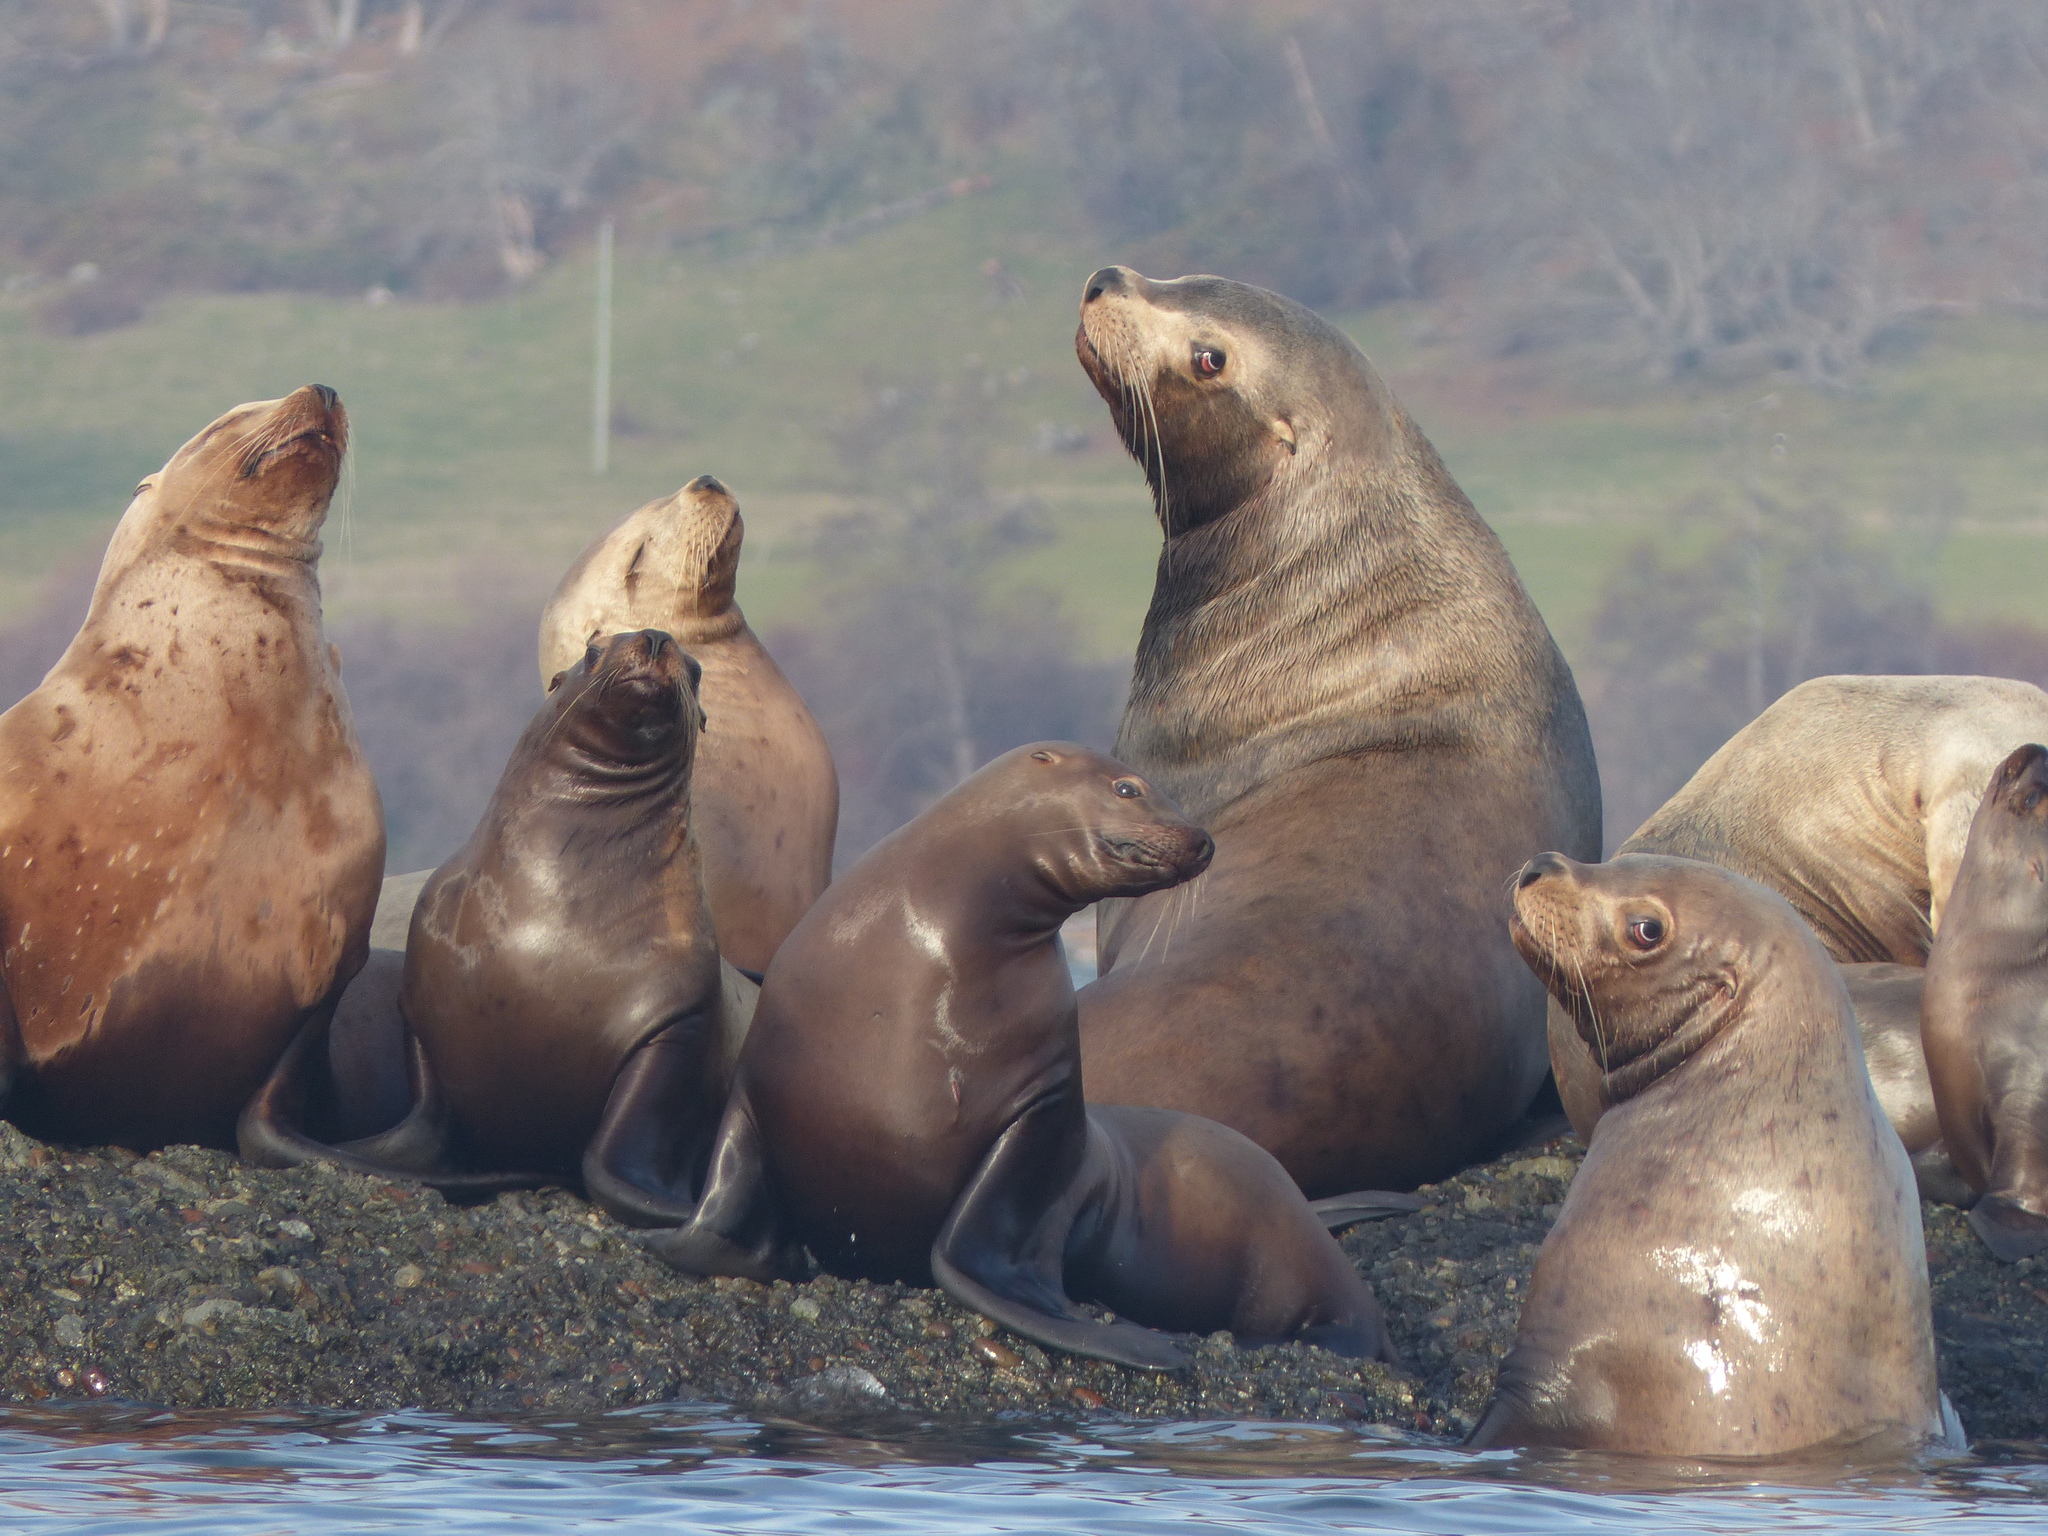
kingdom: Animalia
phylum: Chordata
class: Mammalia
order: Carnivora
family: Otariidae
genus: Eumetopias
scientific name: Eumetopias jubatus
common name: Steller sea lion
